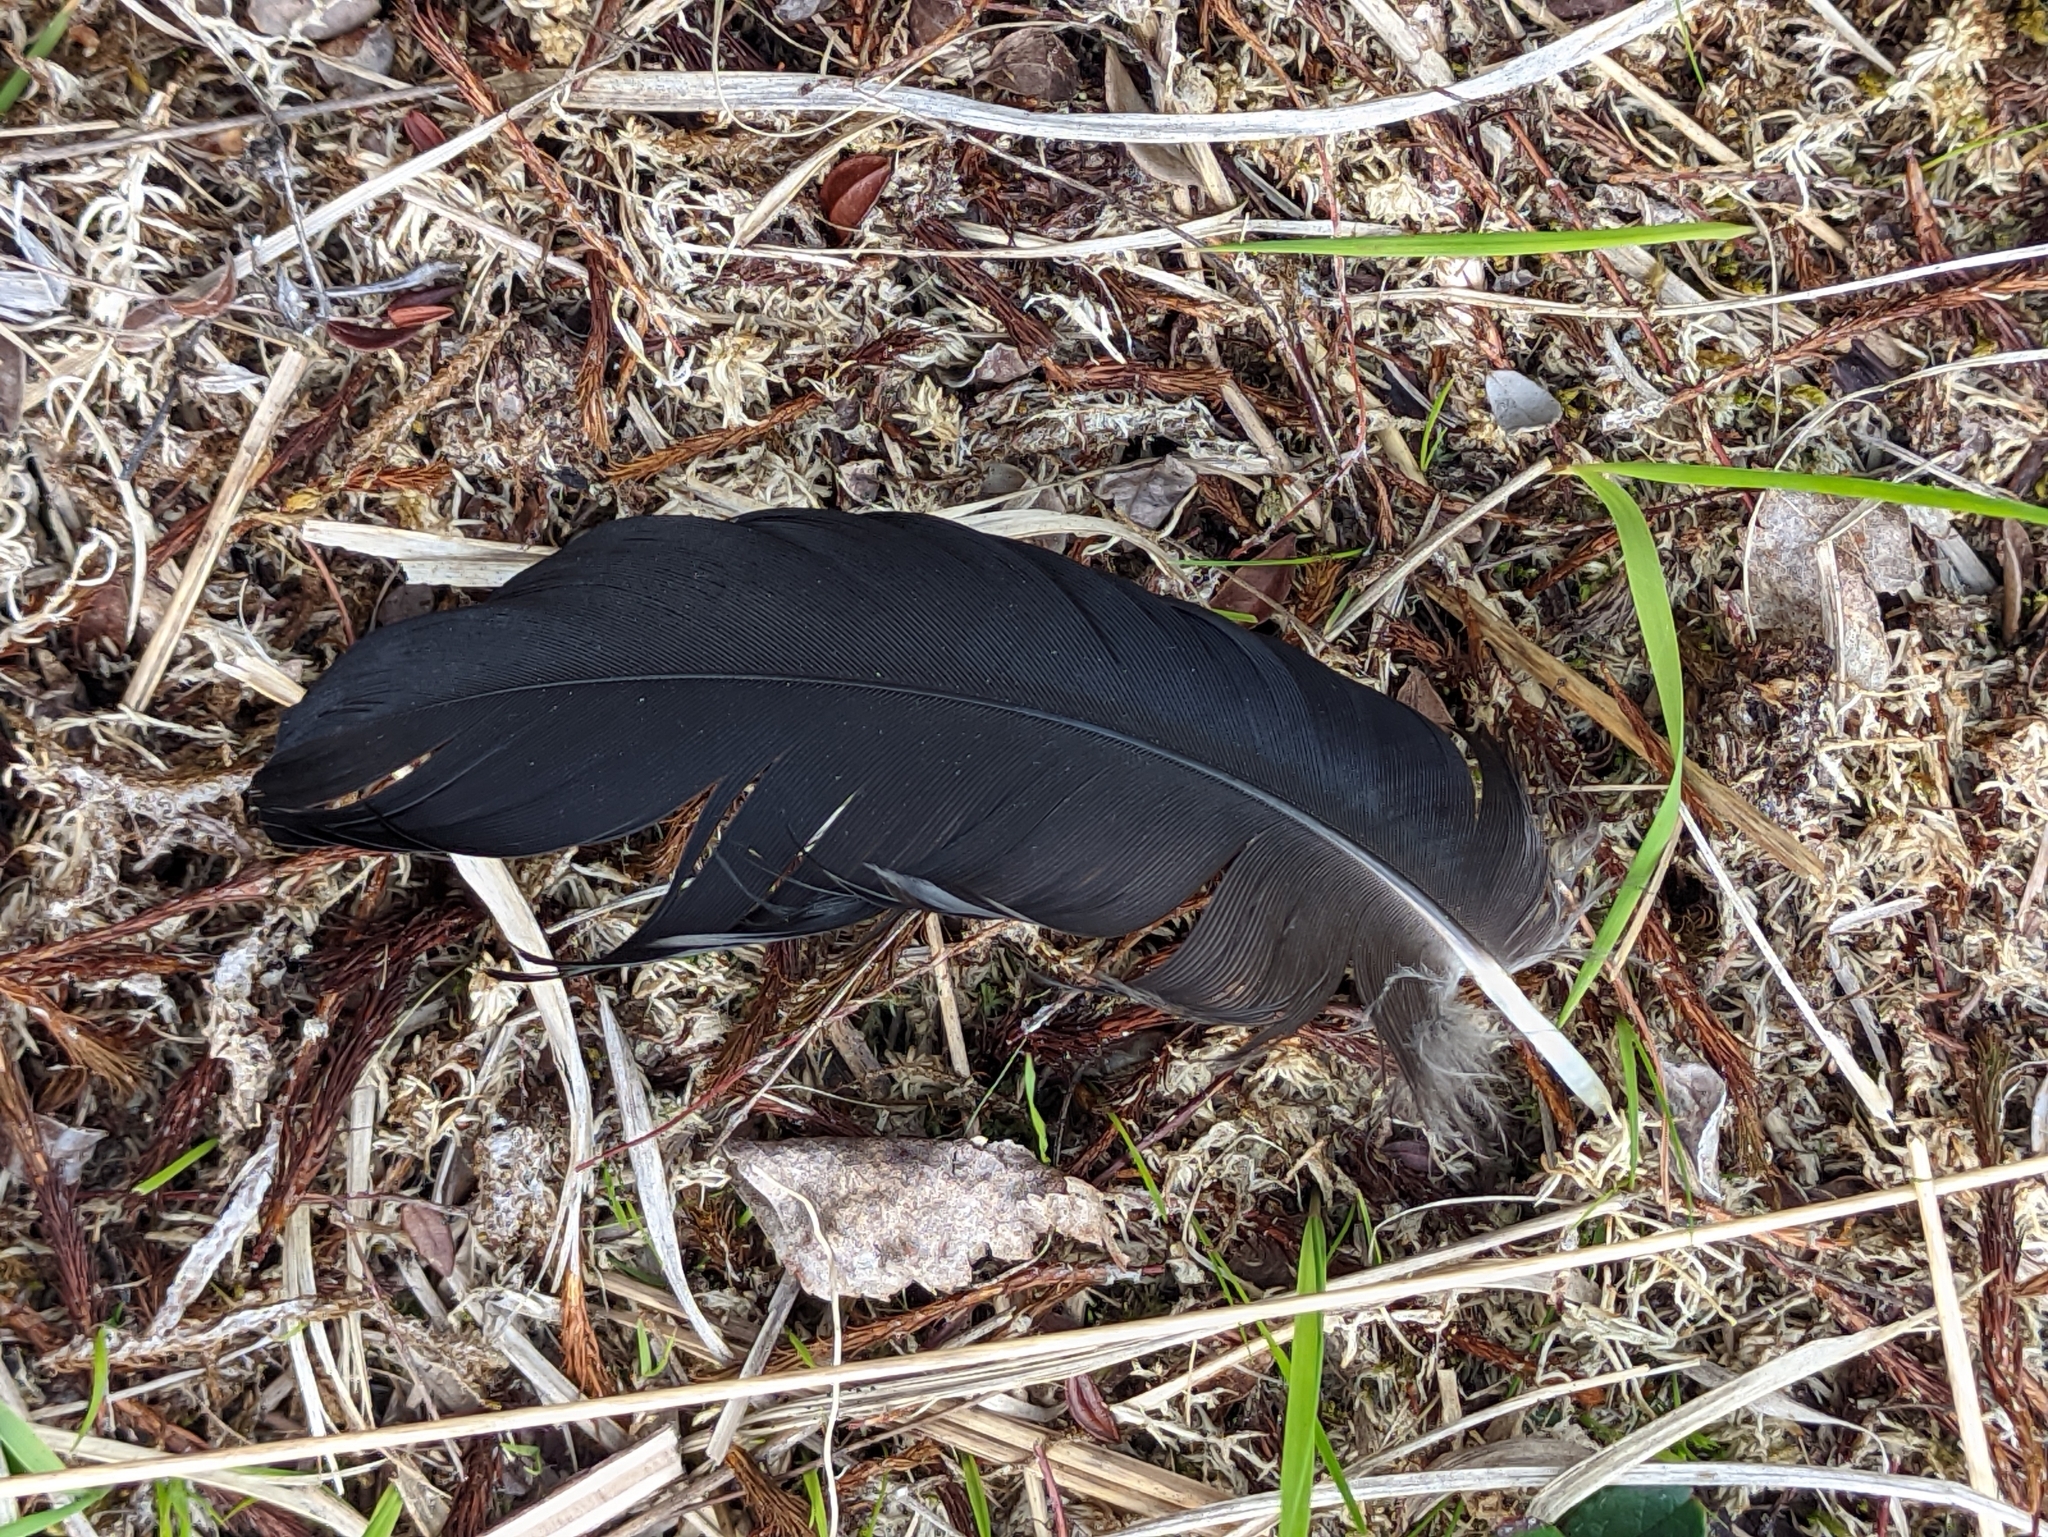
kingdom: Animalia
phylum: Chordata
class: Aves
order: Passeriformes
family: Corvidae
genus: Corvus
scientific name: Corvus corax
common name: Common raven
